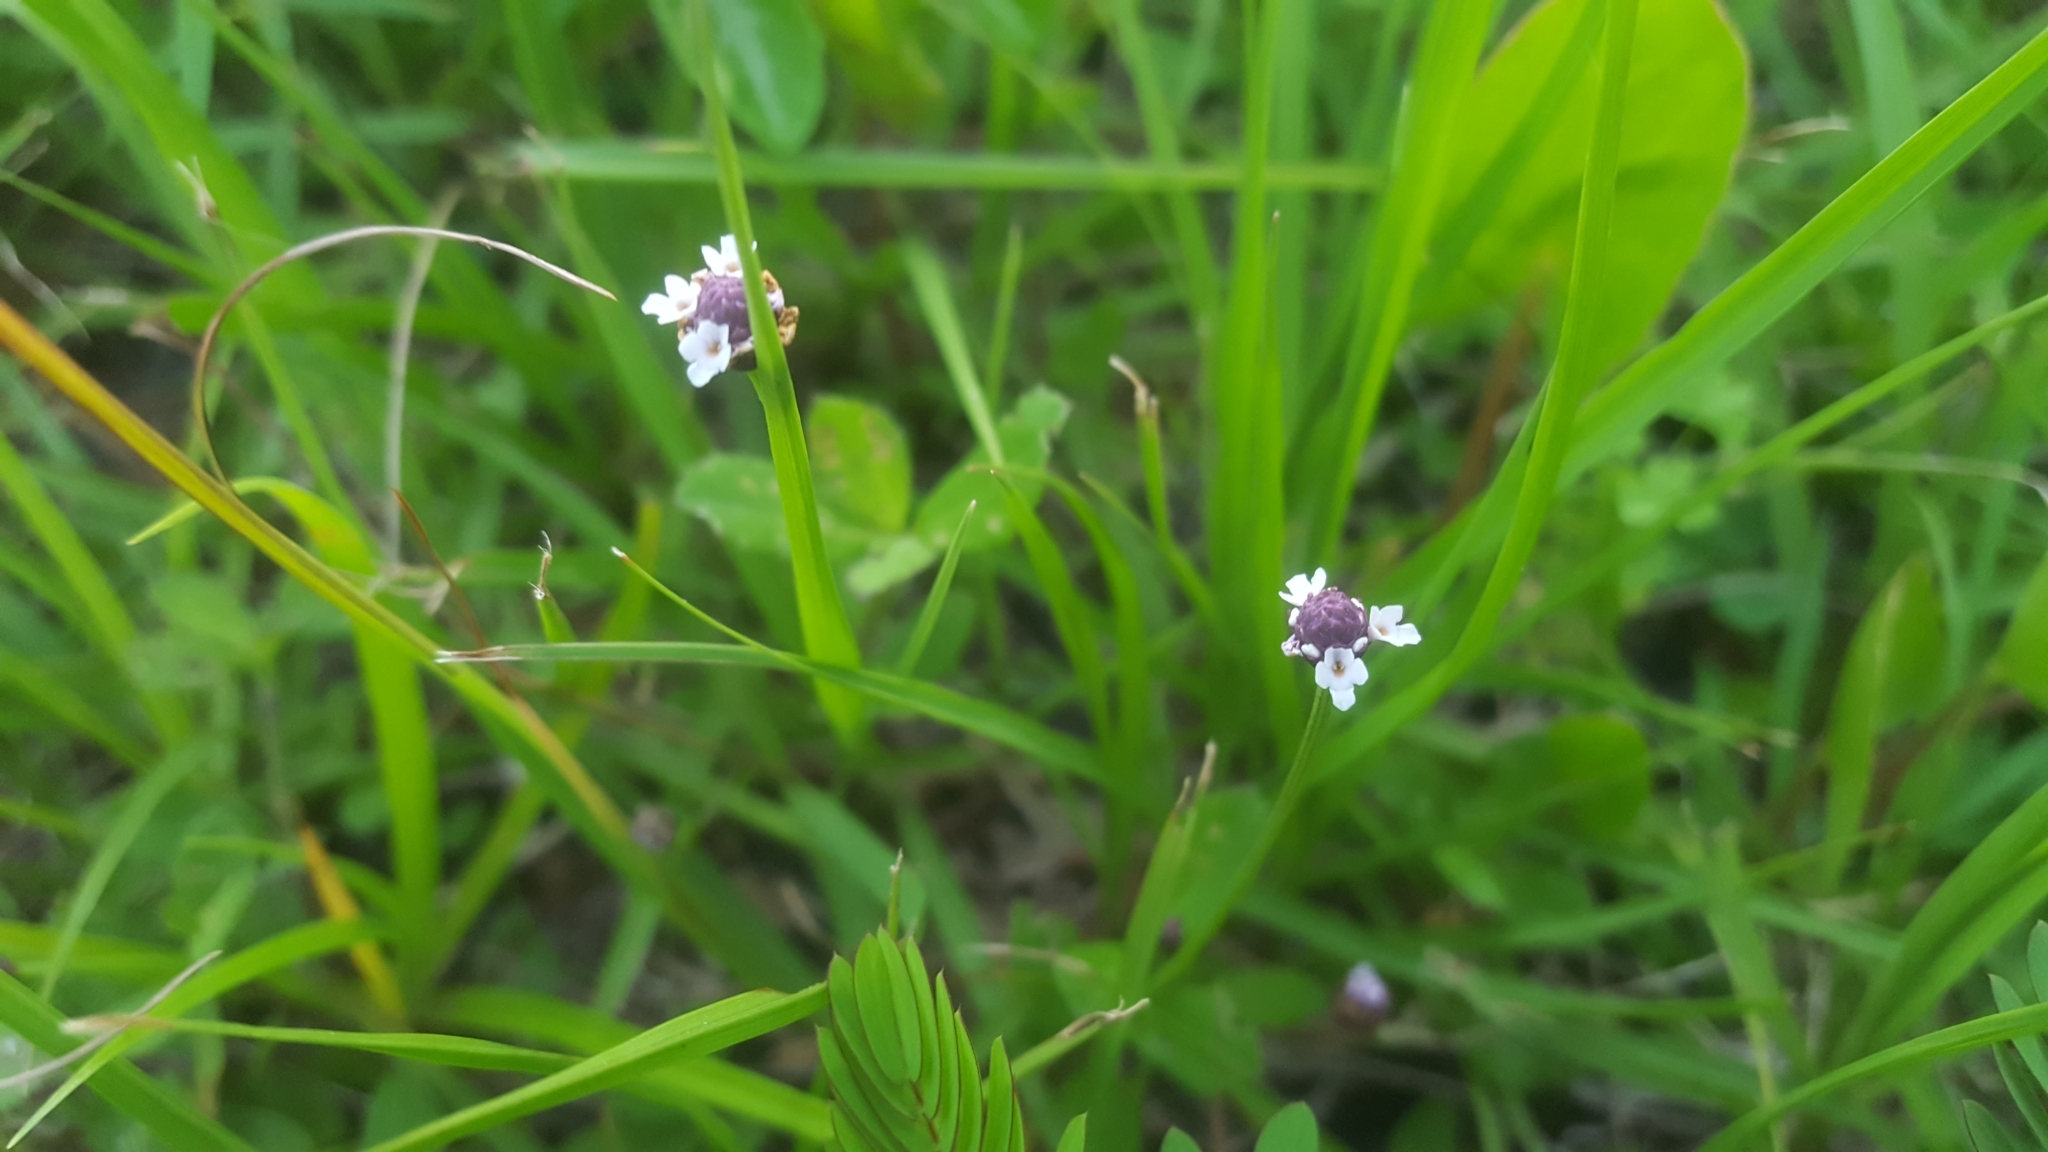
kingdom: Plantae
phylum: Tracheophyta
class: Magnoliopsida
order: Lamiales
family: Verbenaceae
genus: Phyla
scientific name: Phyla nodiflora
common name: Frogfruit
